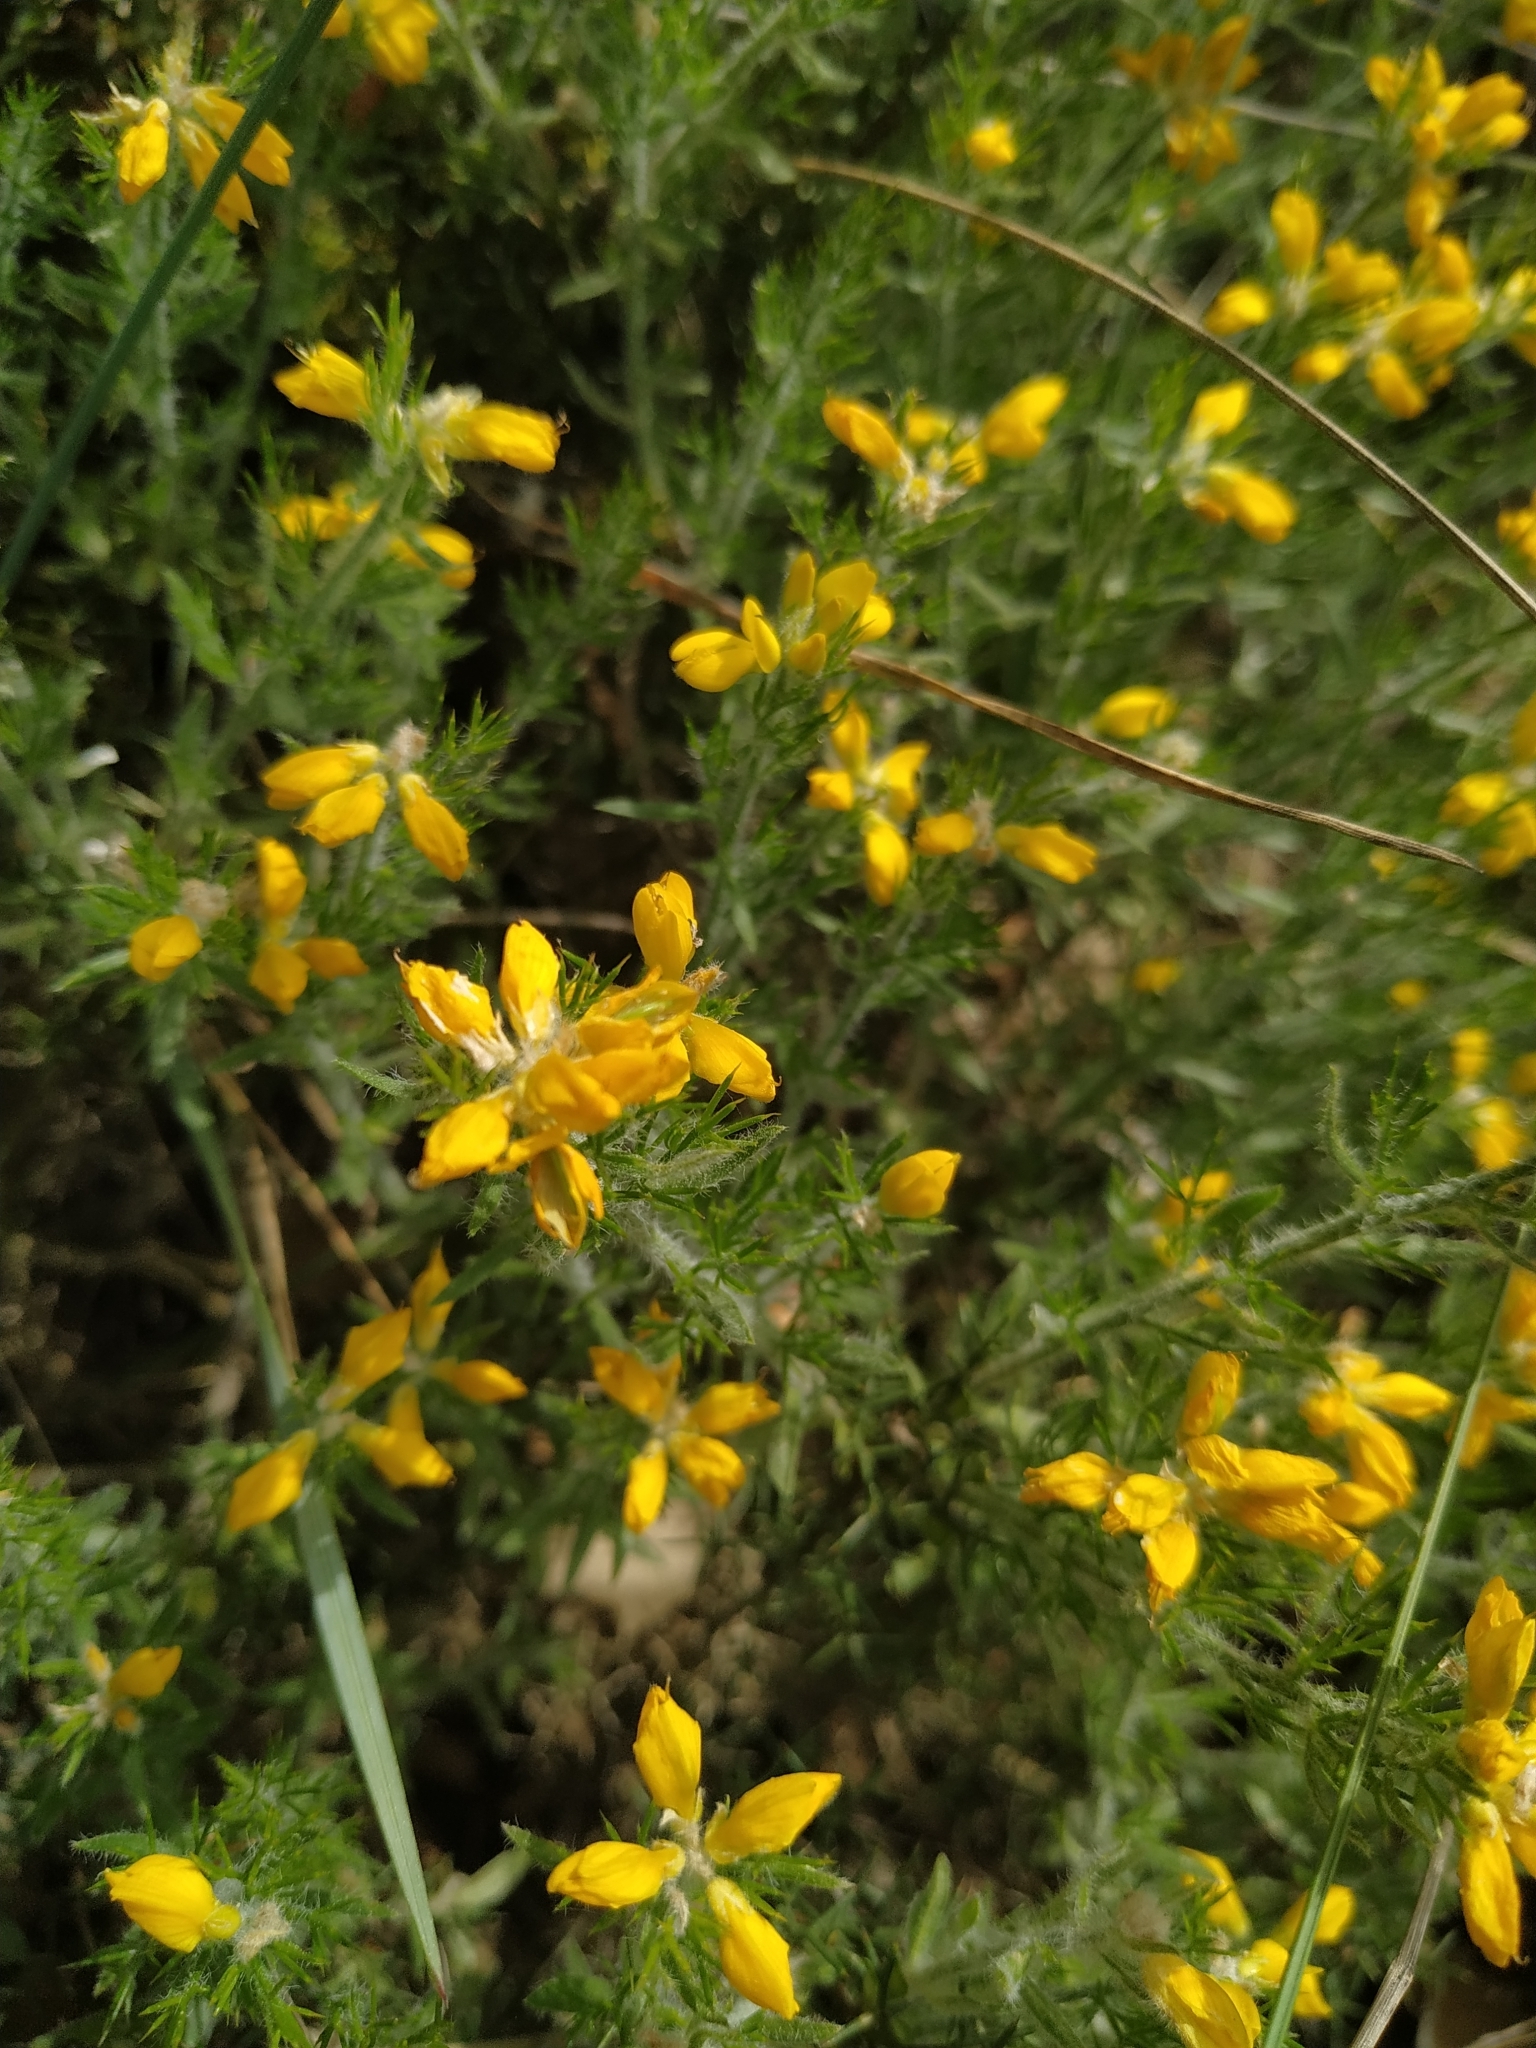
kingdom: Plantae
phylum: Tracheophyta
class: Magnoliopsida
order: Fabales
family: Fabaceae
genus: Genista
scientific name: Genista hispanica
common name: Spanish gorse
